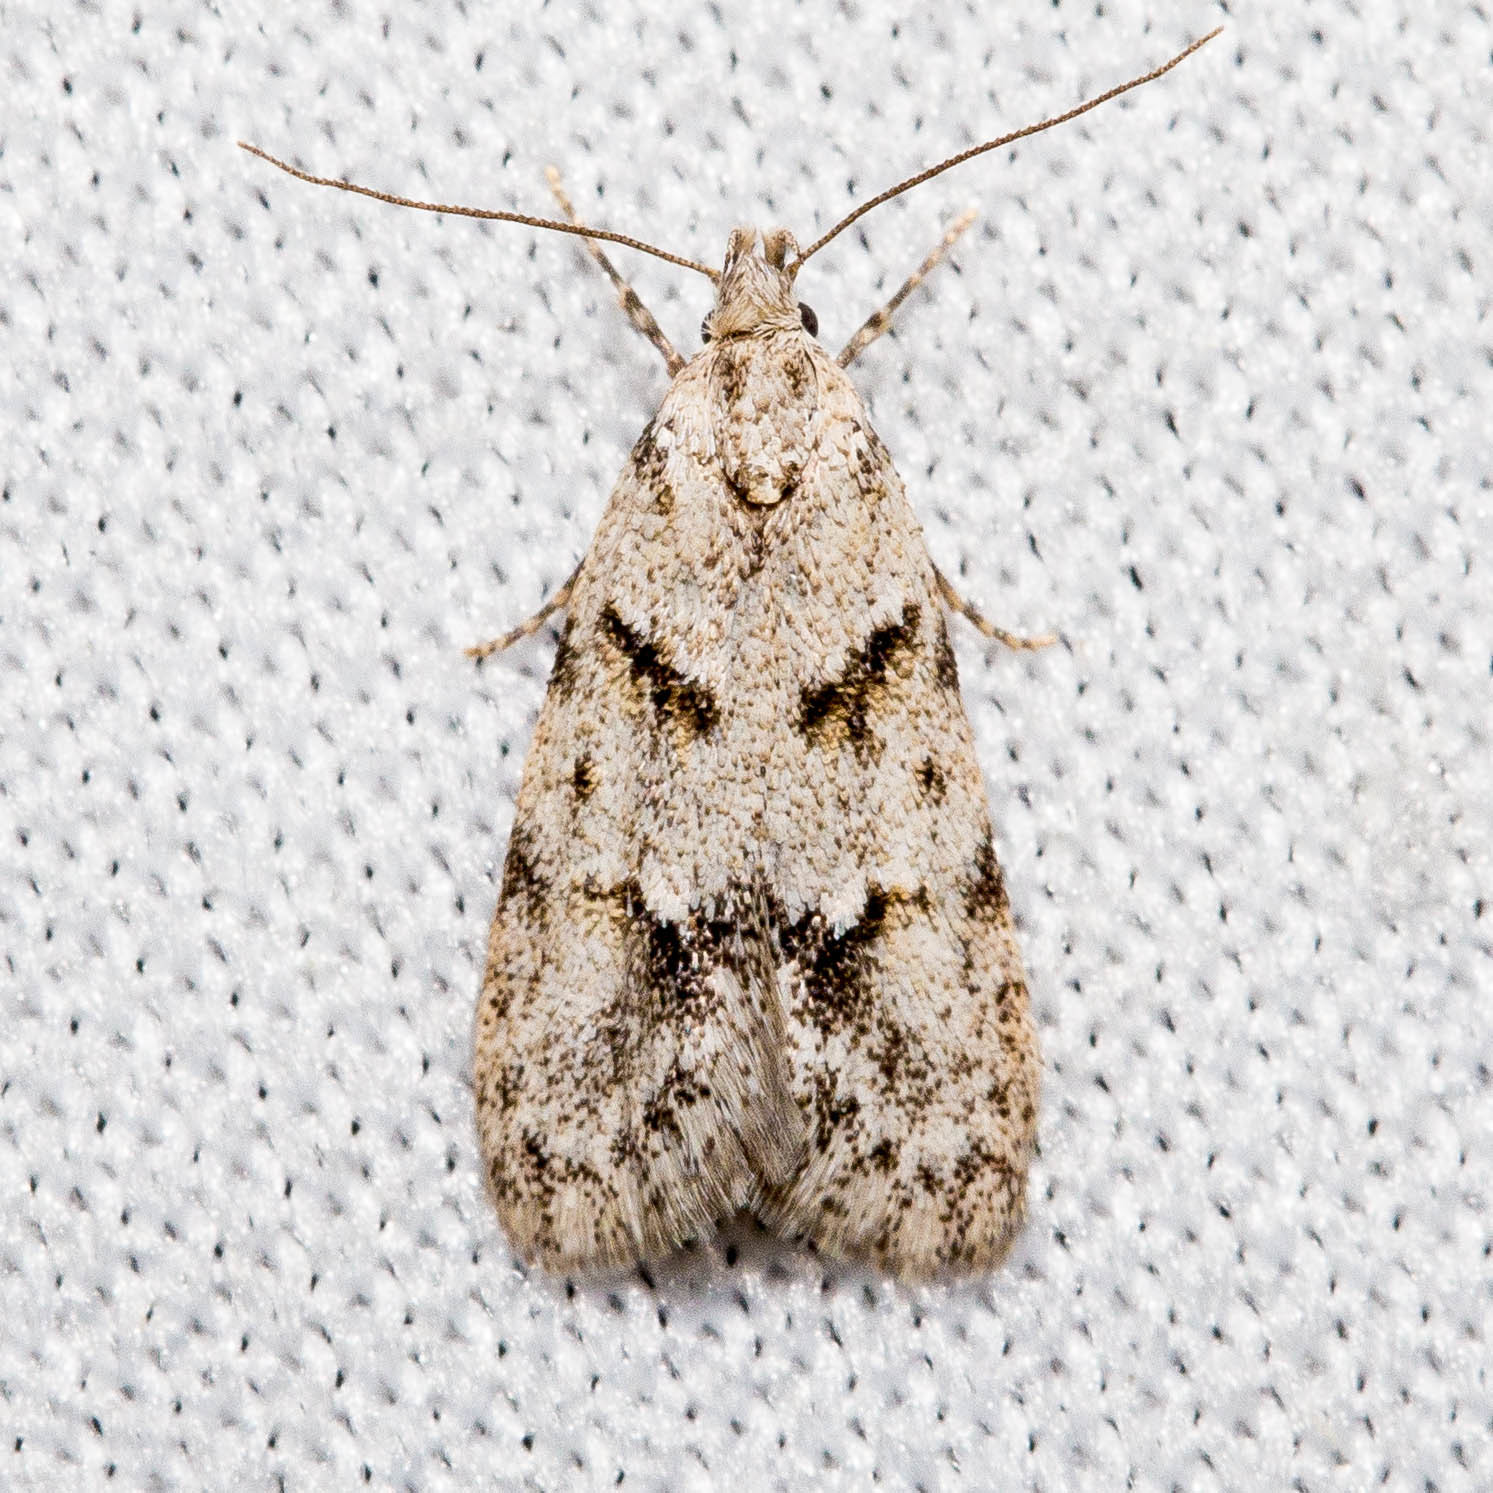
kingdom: Animalia
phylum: Arthropoda
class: Insecta
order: Lepidoptera
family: Autostichidae
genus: Symmoca
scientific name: Symmoca signatella
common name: Dockland obscure
